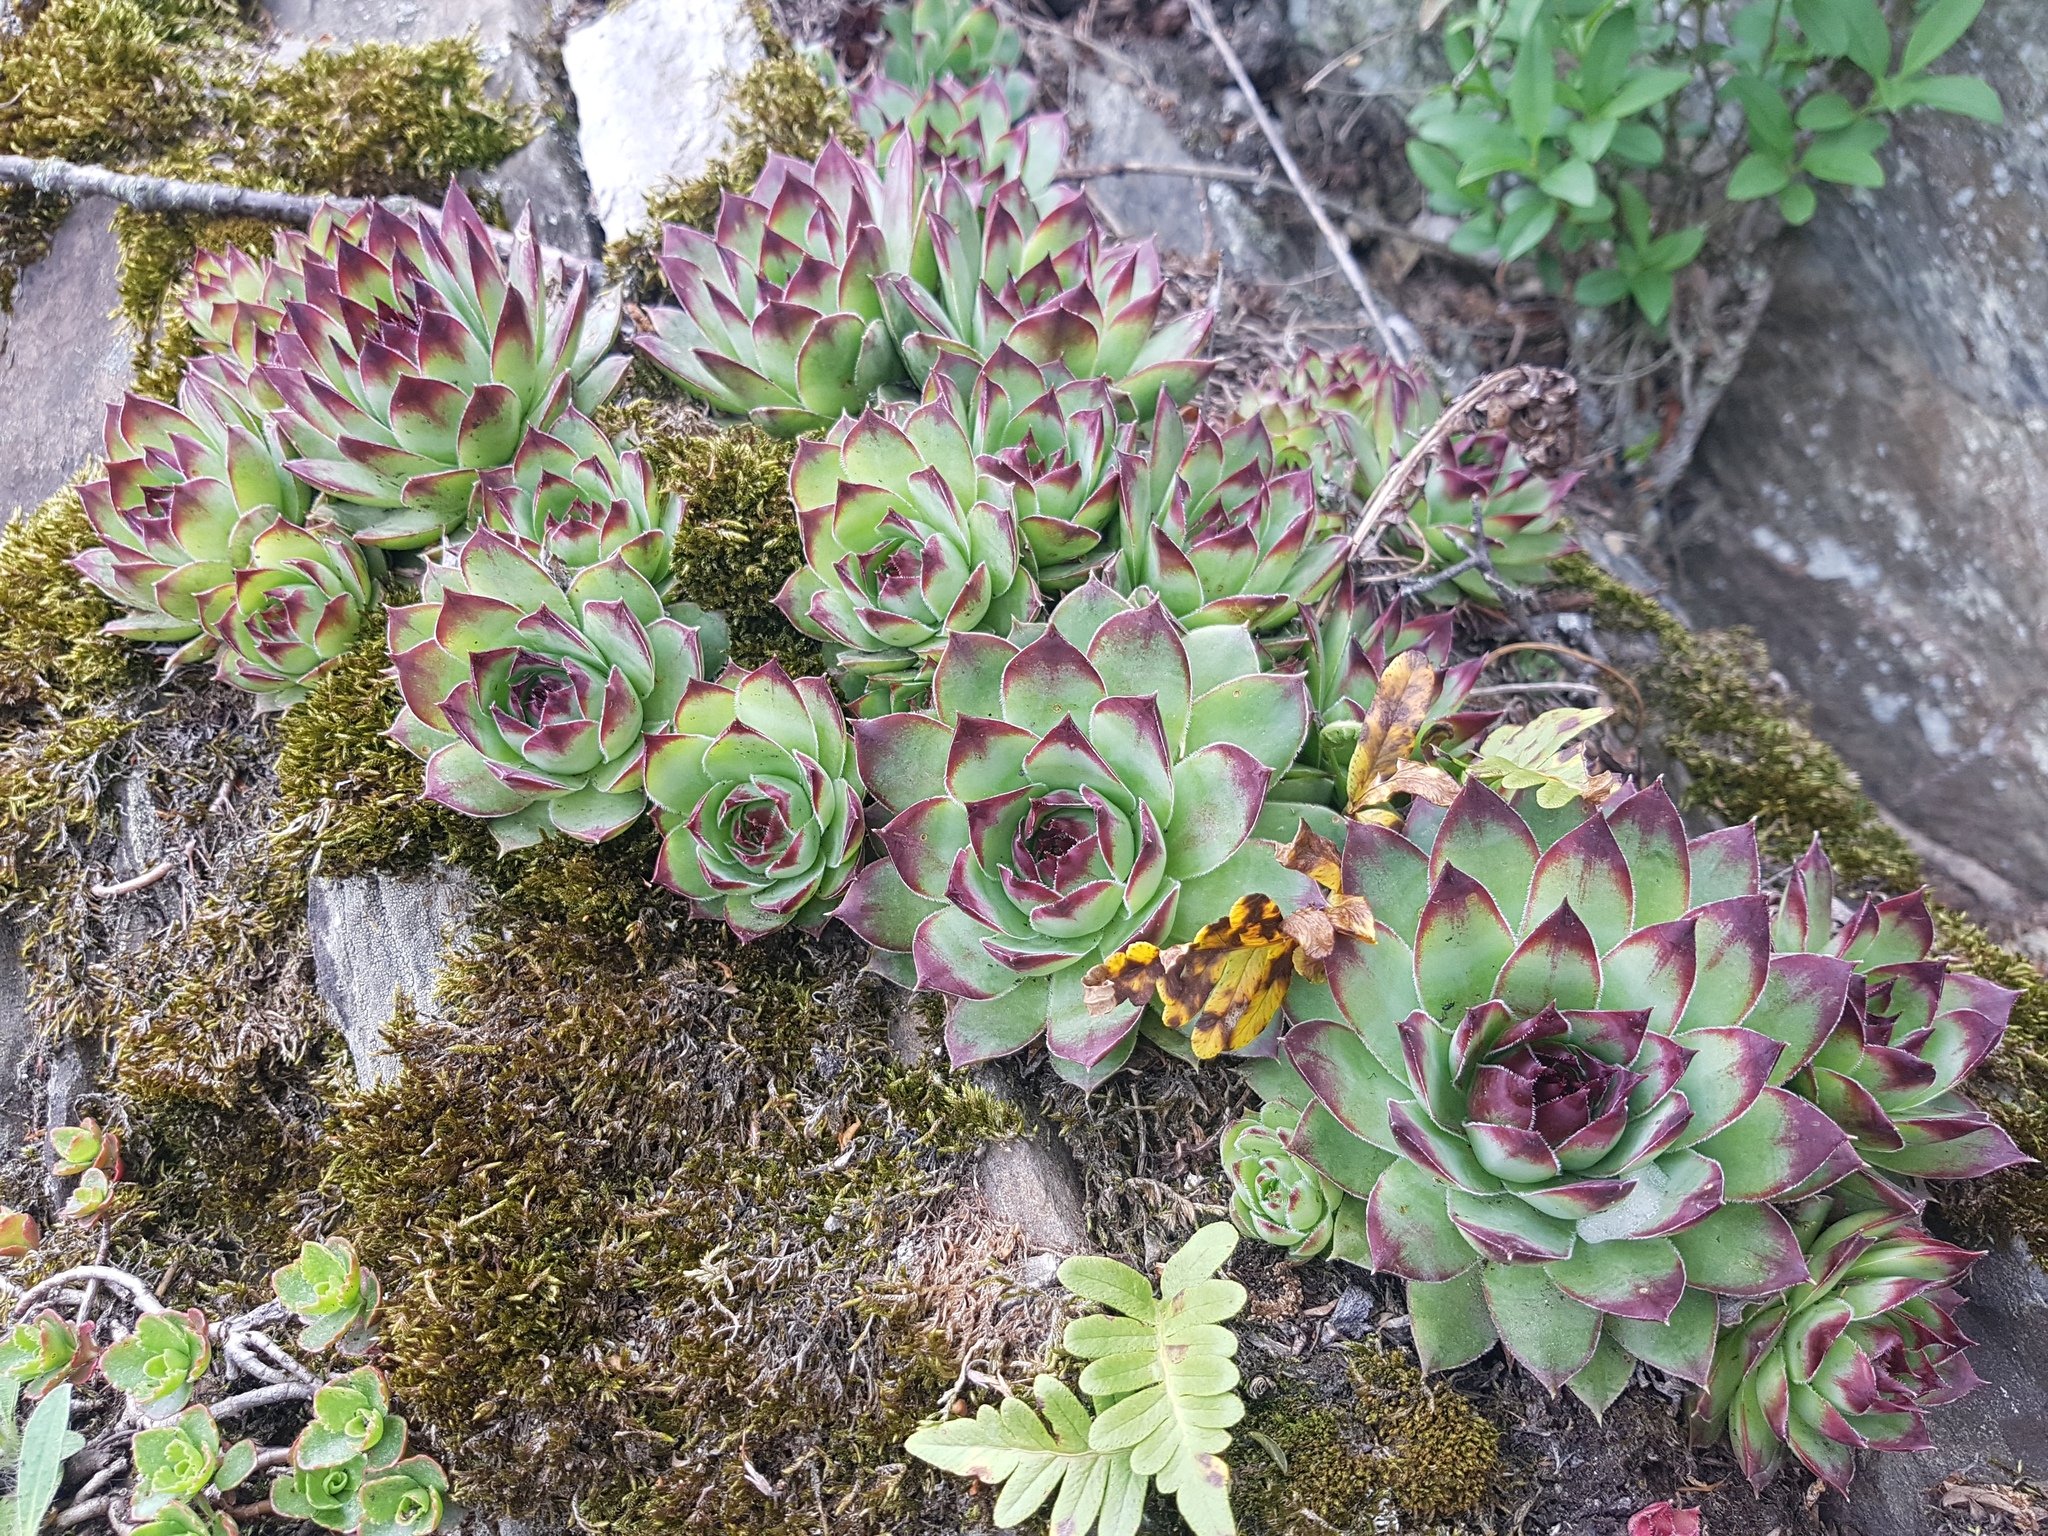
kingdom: Plantae
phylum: Tracheophyta
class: Magnoliopsida
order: Saxifragales
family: Crassulaceae
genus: Sempervivum
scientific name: Sempervivum tectorum
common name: House-leek
